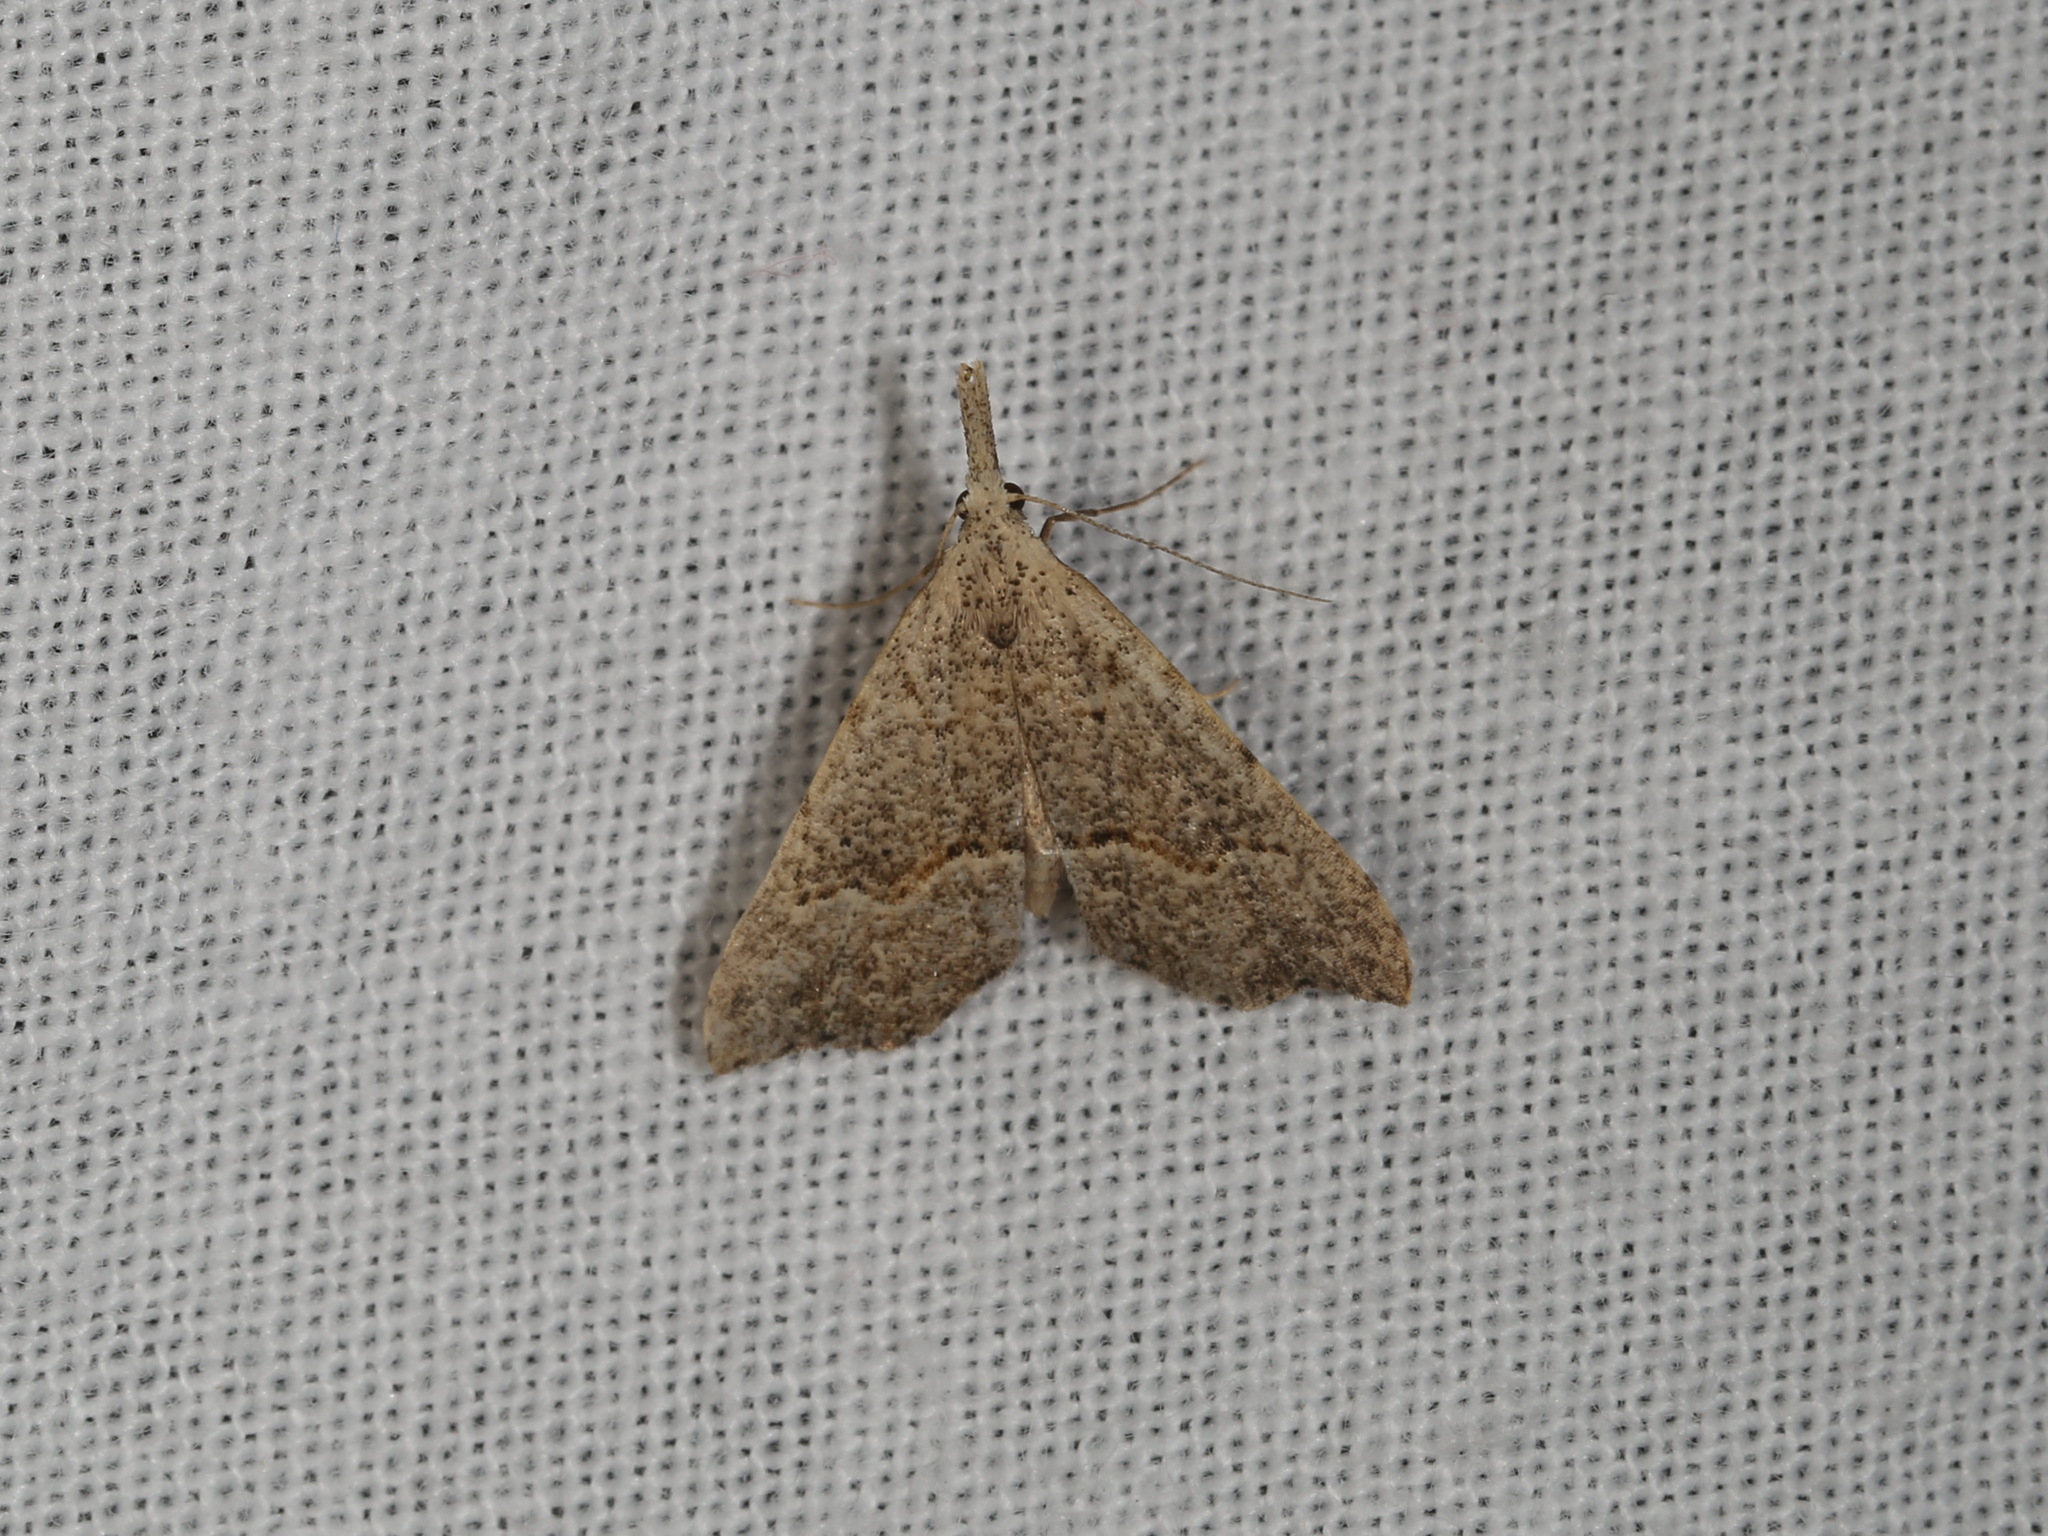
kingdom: Animalia
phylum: Arthropoda
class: Insecta
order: Lepidoptera
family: Erebidae
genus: Trigonistis
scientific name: Trigonistis asthenopa
